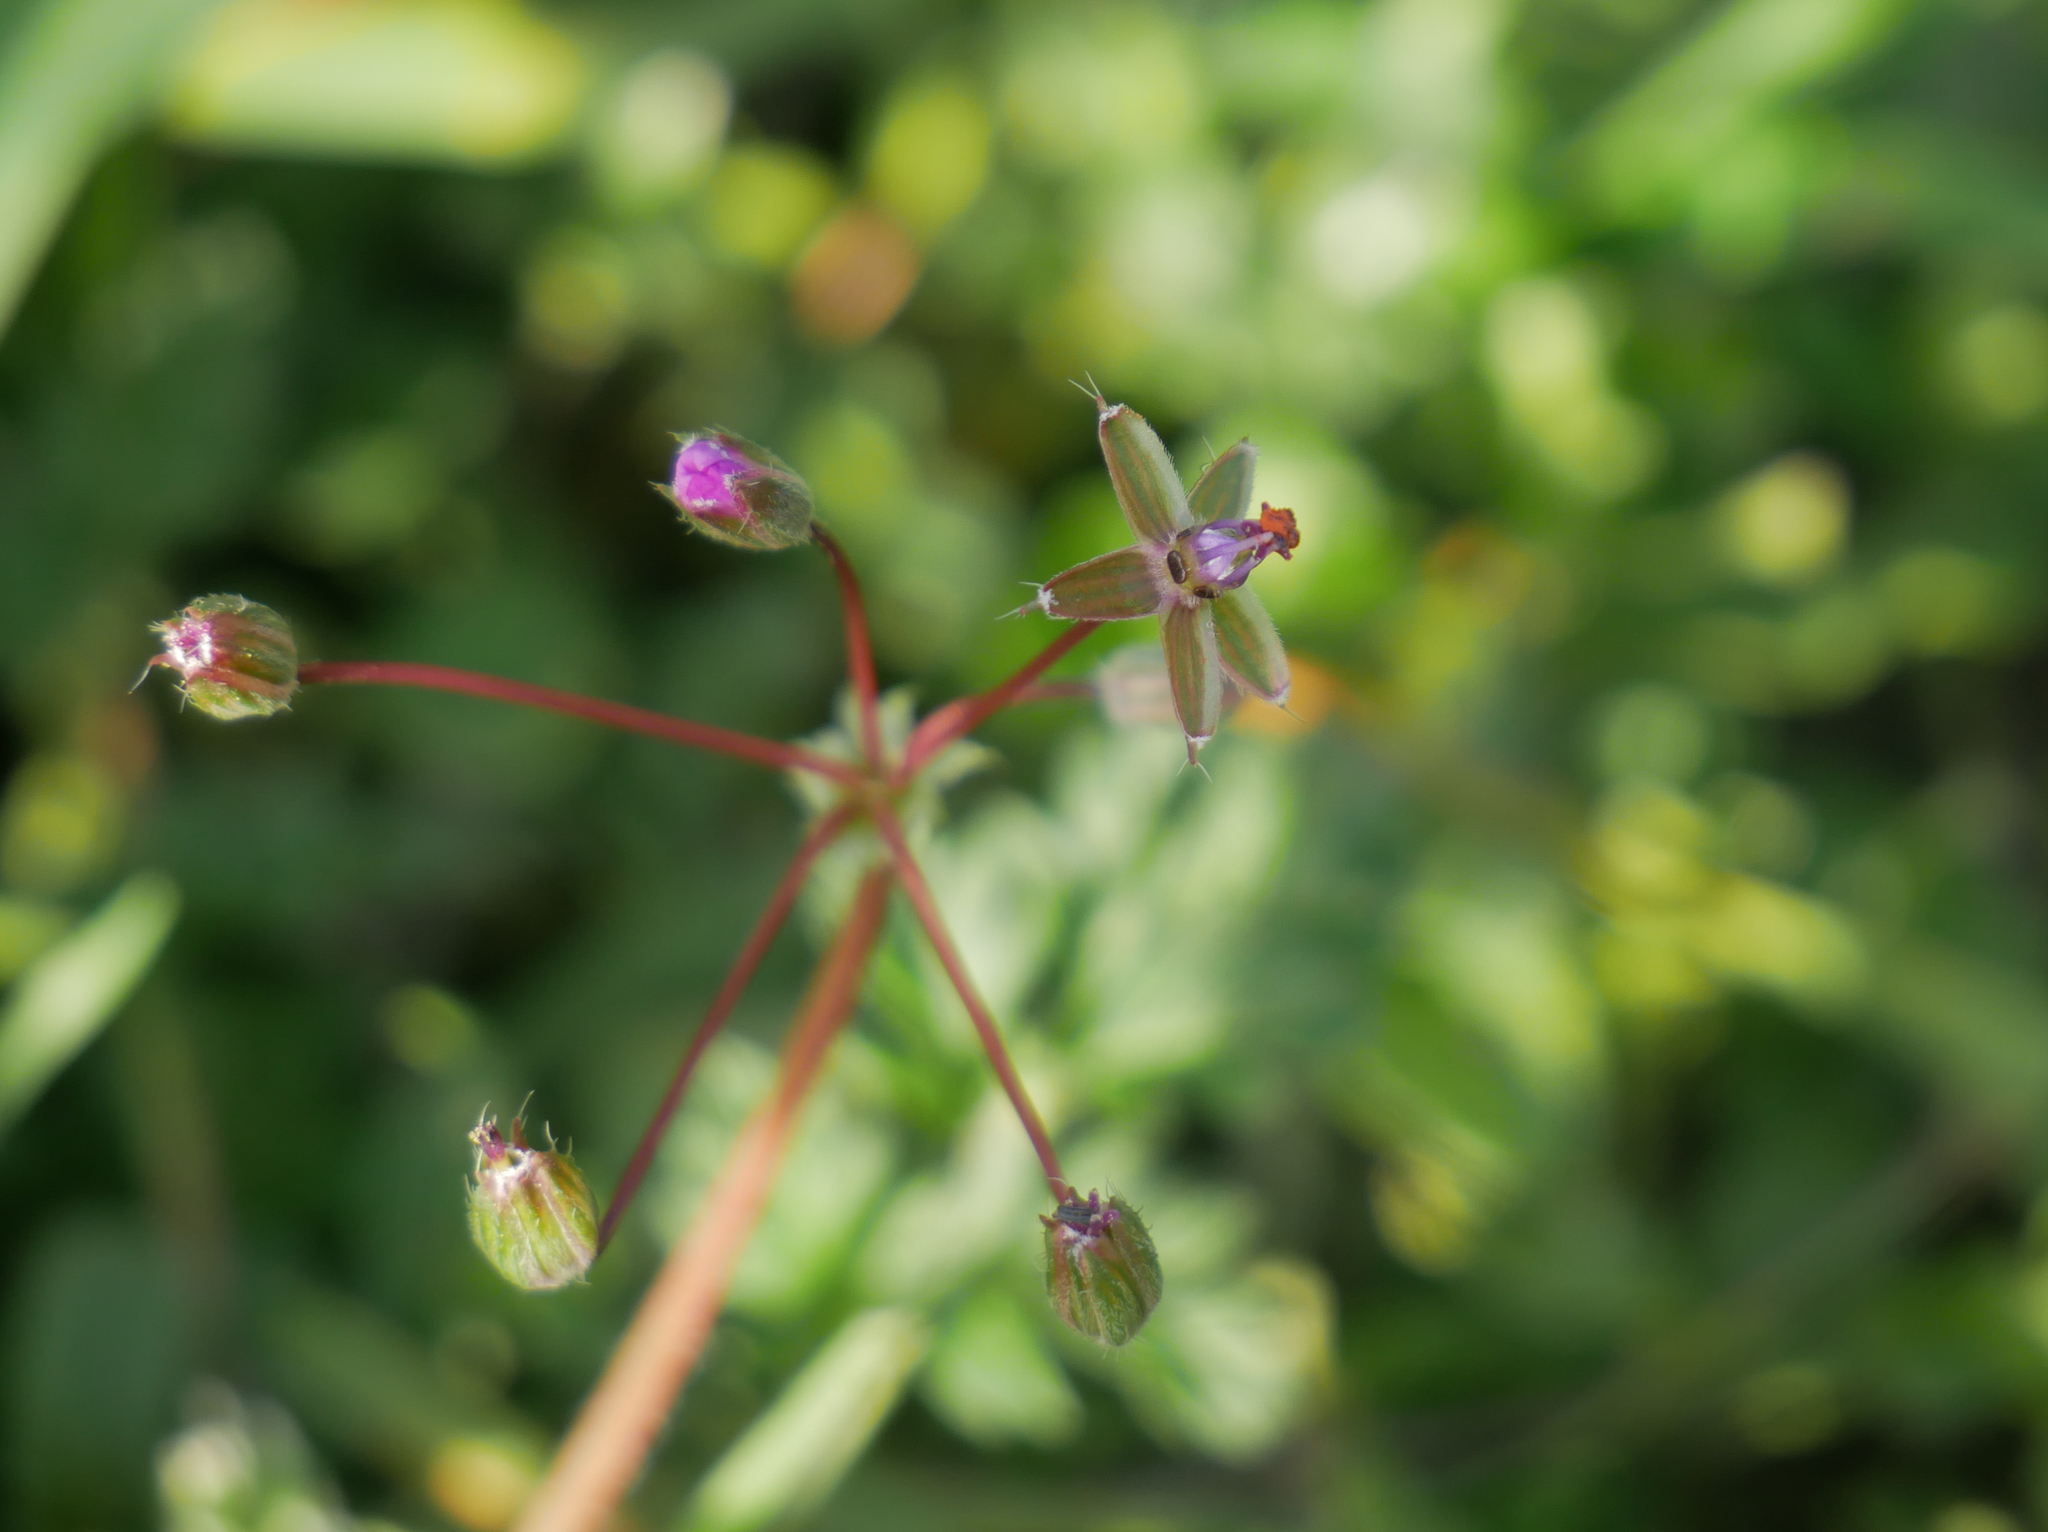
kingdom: Plantae
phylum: Tracheophyta
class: Magnoliopsida
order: Geraniales
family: Geraniaceae
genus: Erodium
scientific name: Erodium cicutarium
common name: Common stork's-bill
